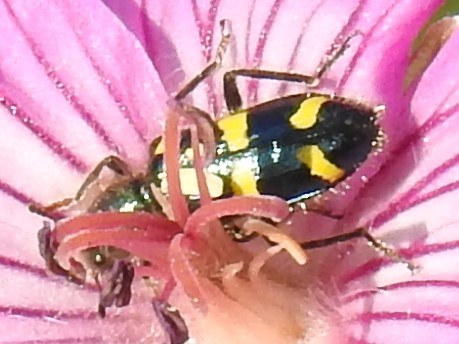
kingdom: Animalia
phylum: Arthropoda
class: Insecta
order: Coleoptera
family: Cleridae
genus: Trichodes
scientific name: Trichodes ornatus
